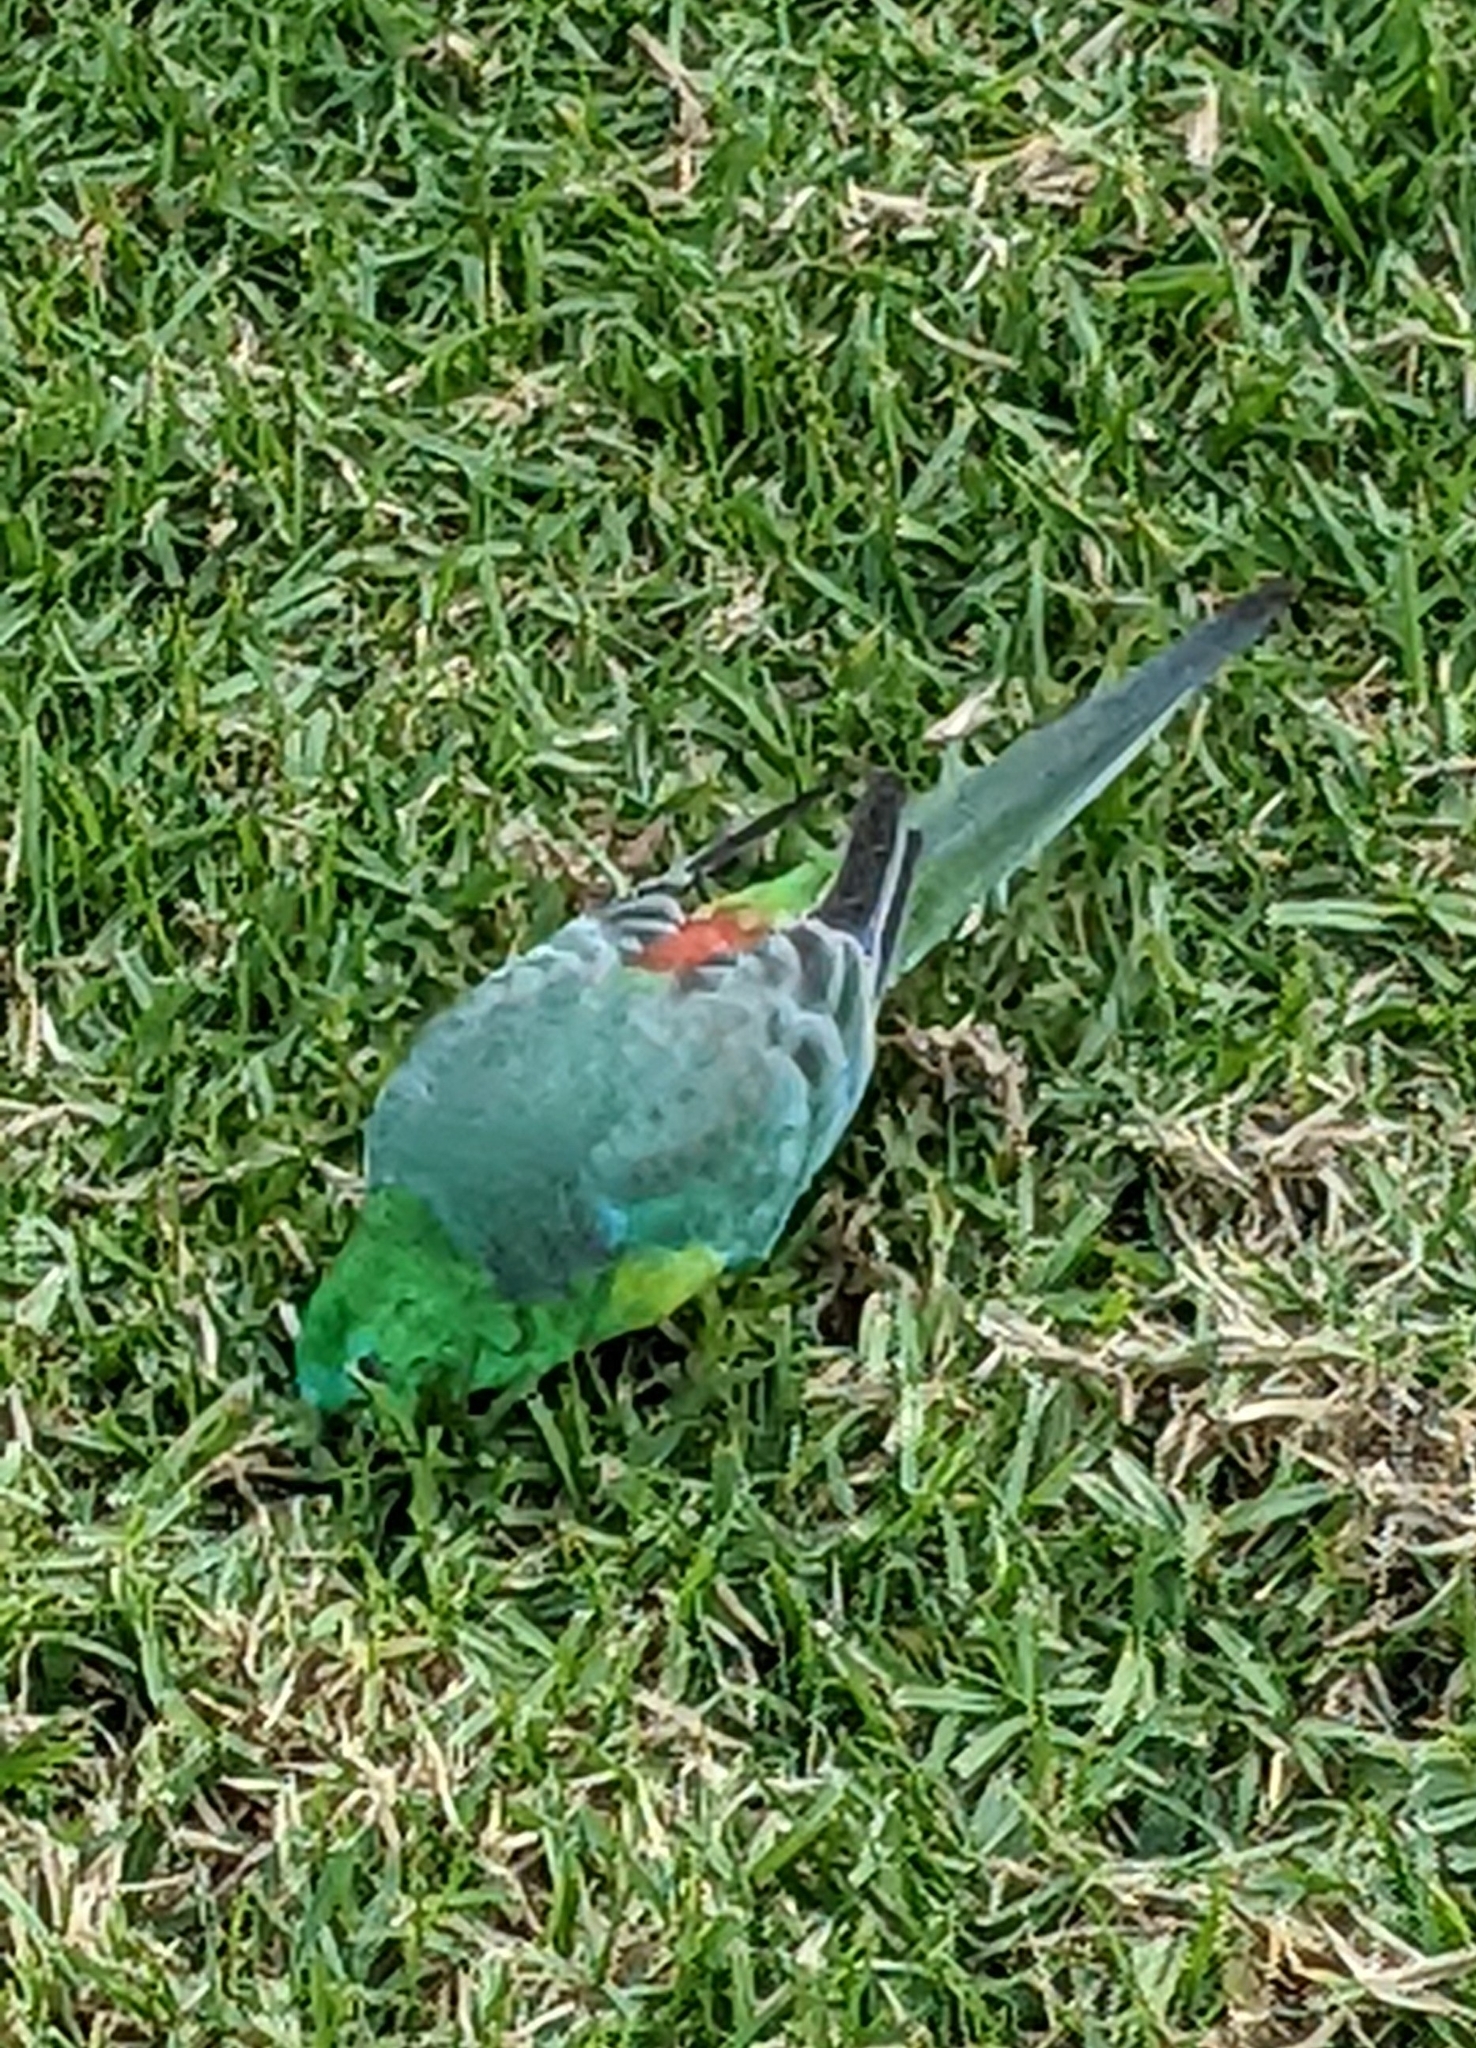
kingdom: Animalia
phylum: Chordata
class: Aves
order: Psittaciformes
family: Psittacidae
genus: Psephotus
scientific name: Psephotus haematonotus
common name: Red-rumped parrot
